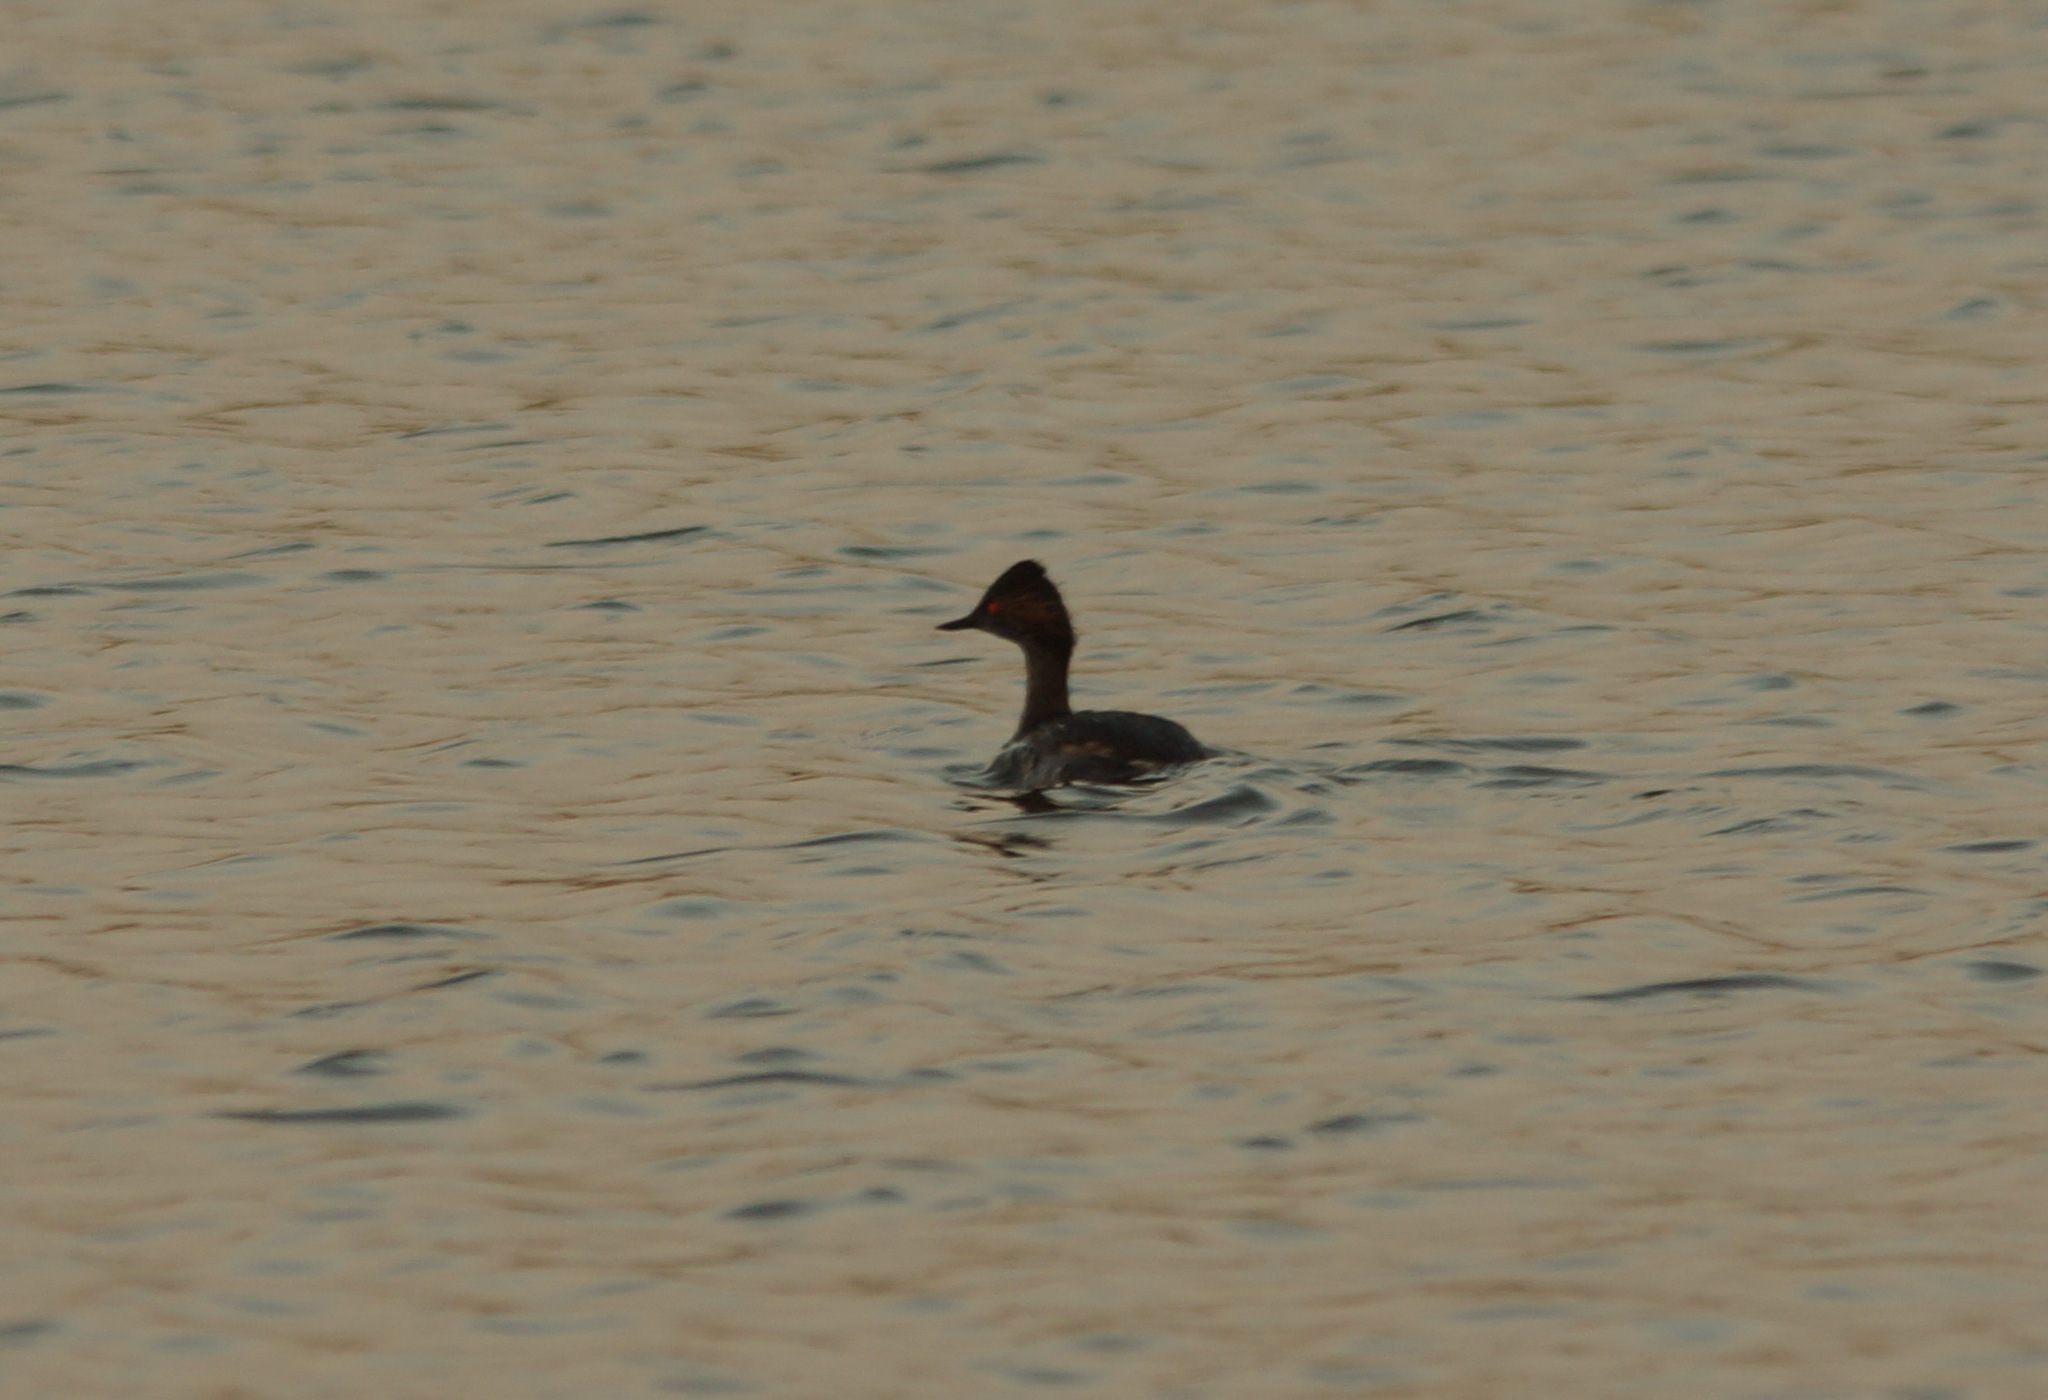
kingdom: Animalia
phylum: Chordata
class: Aves
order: Podicipediformes
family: Podicipedidae
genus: Podiceps
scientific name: Podiceps nigricollis
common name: Black-necked grebe
